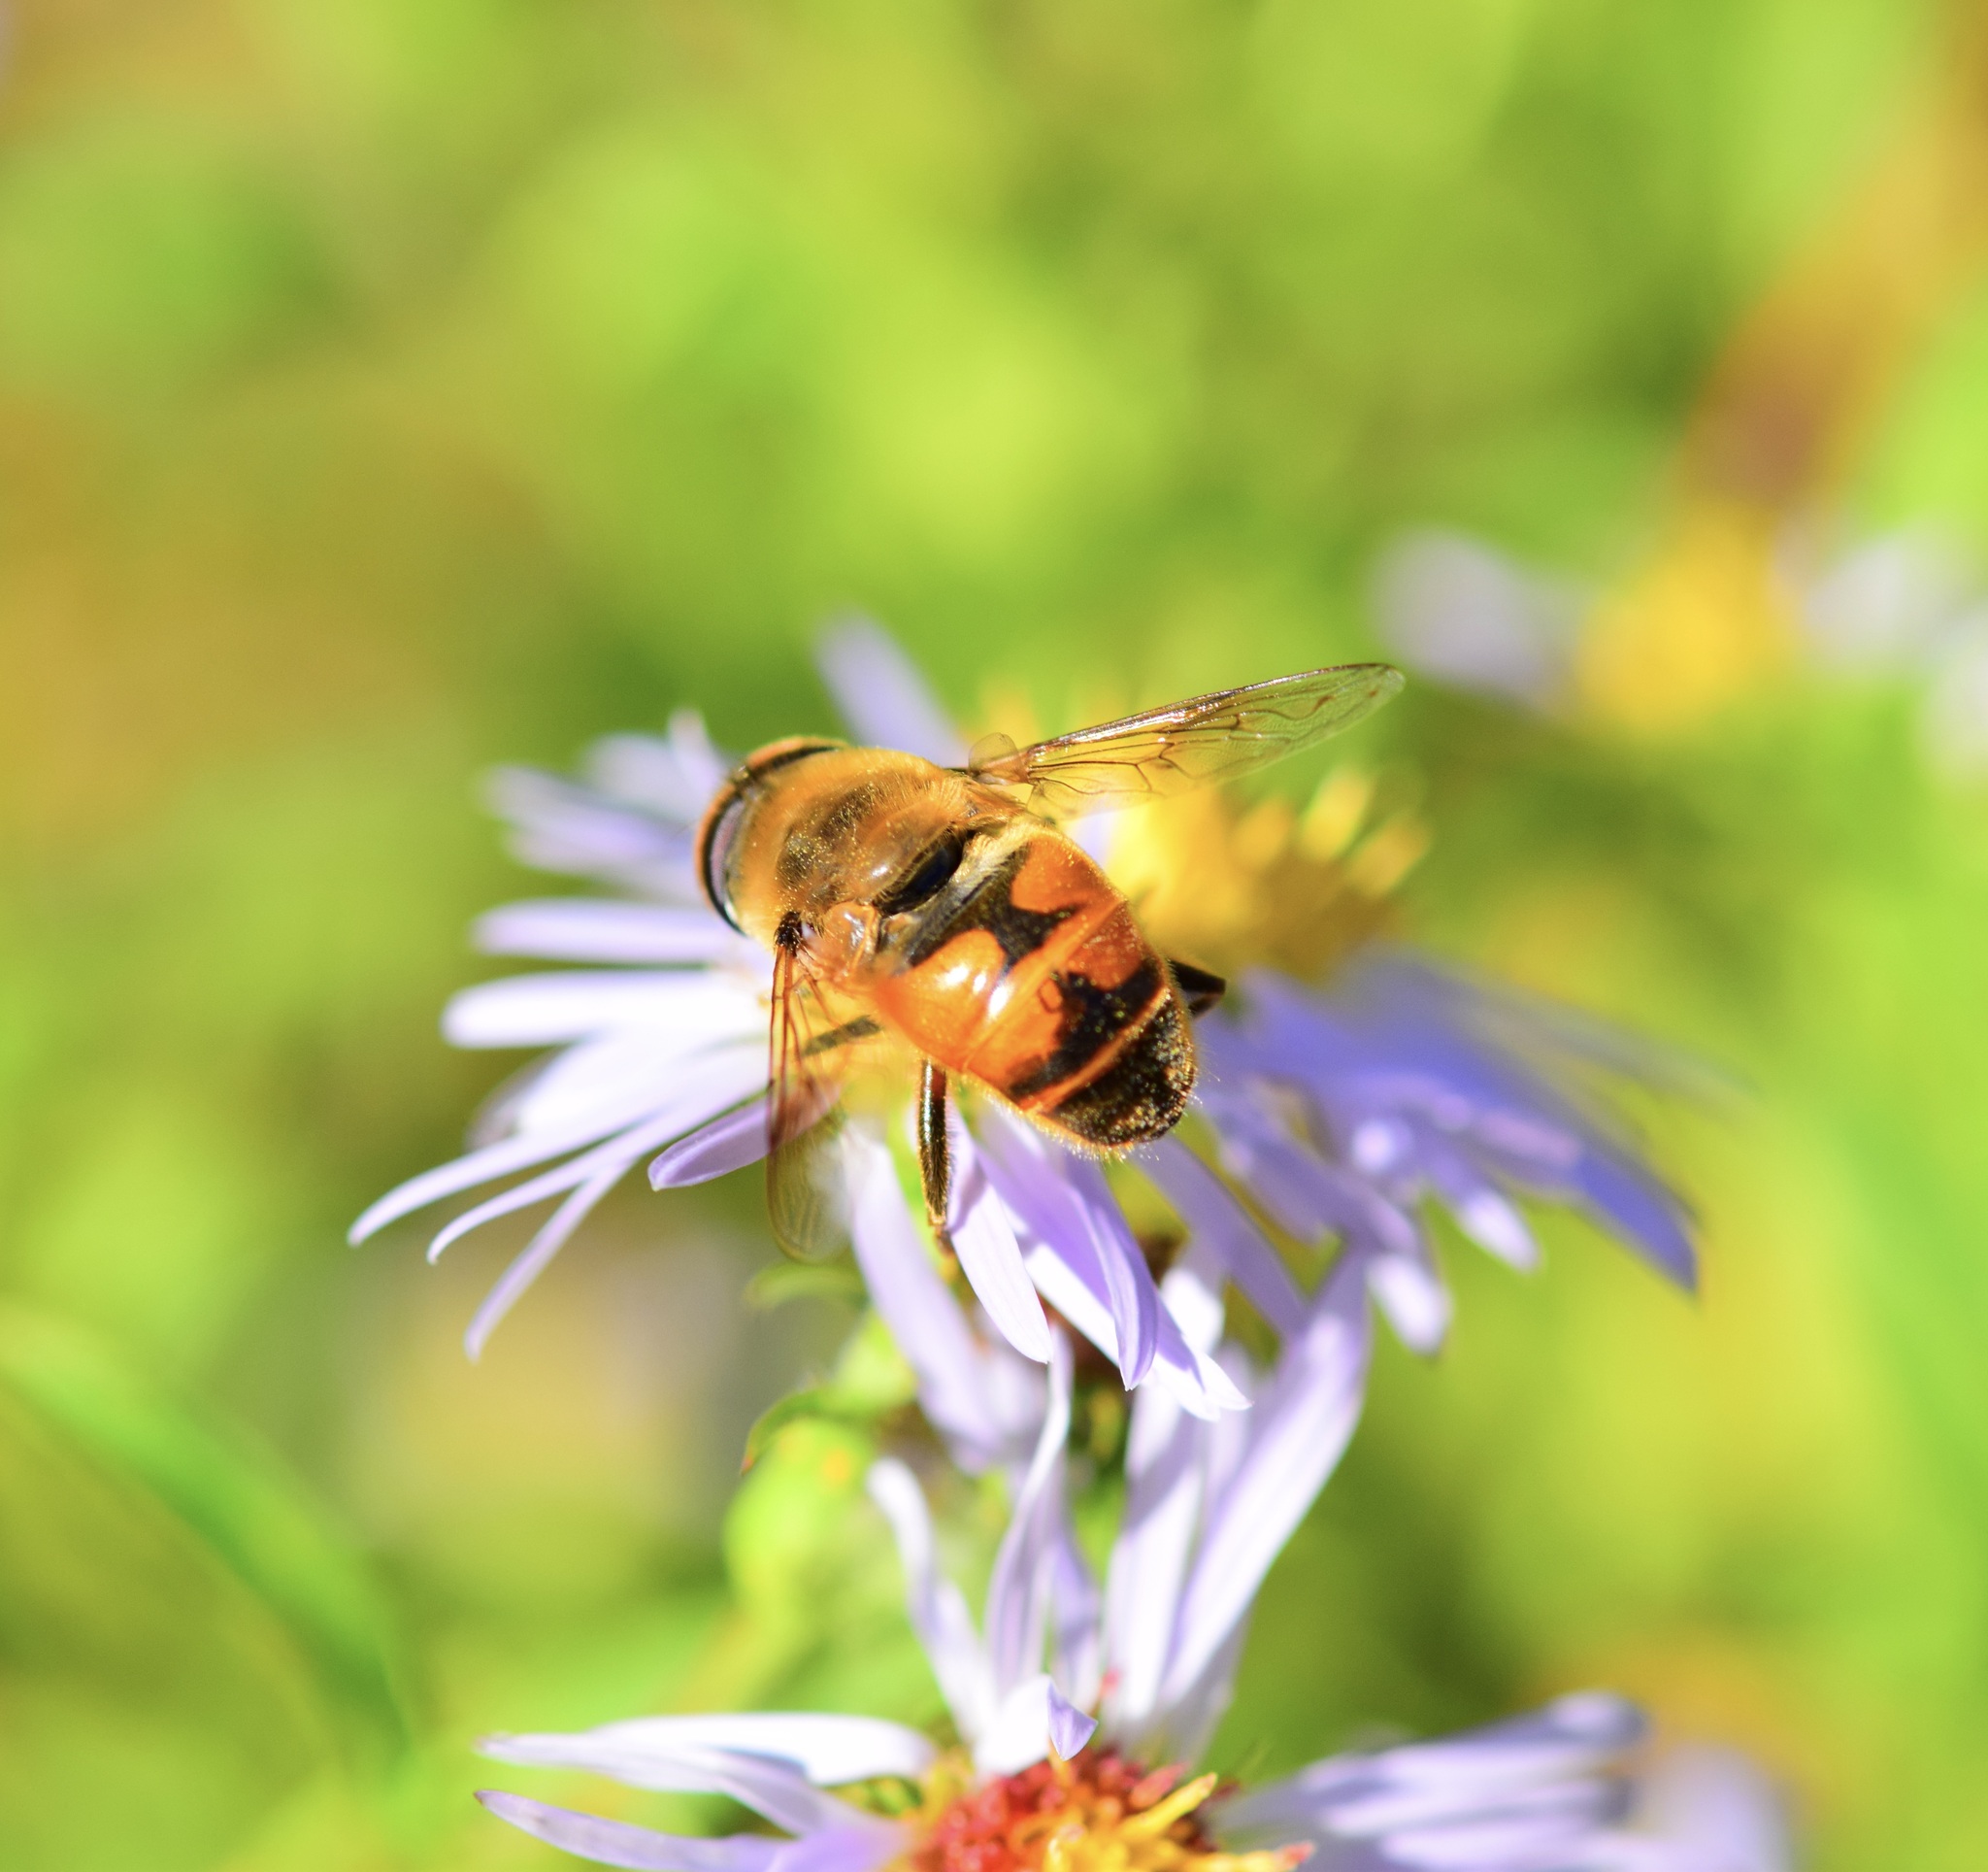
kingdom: Animalia
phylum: Arthropoda
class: Insecta
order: Diptera
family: Syrphidae
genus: Eristalis
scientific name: Eristalis tenax
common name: Drone fly
